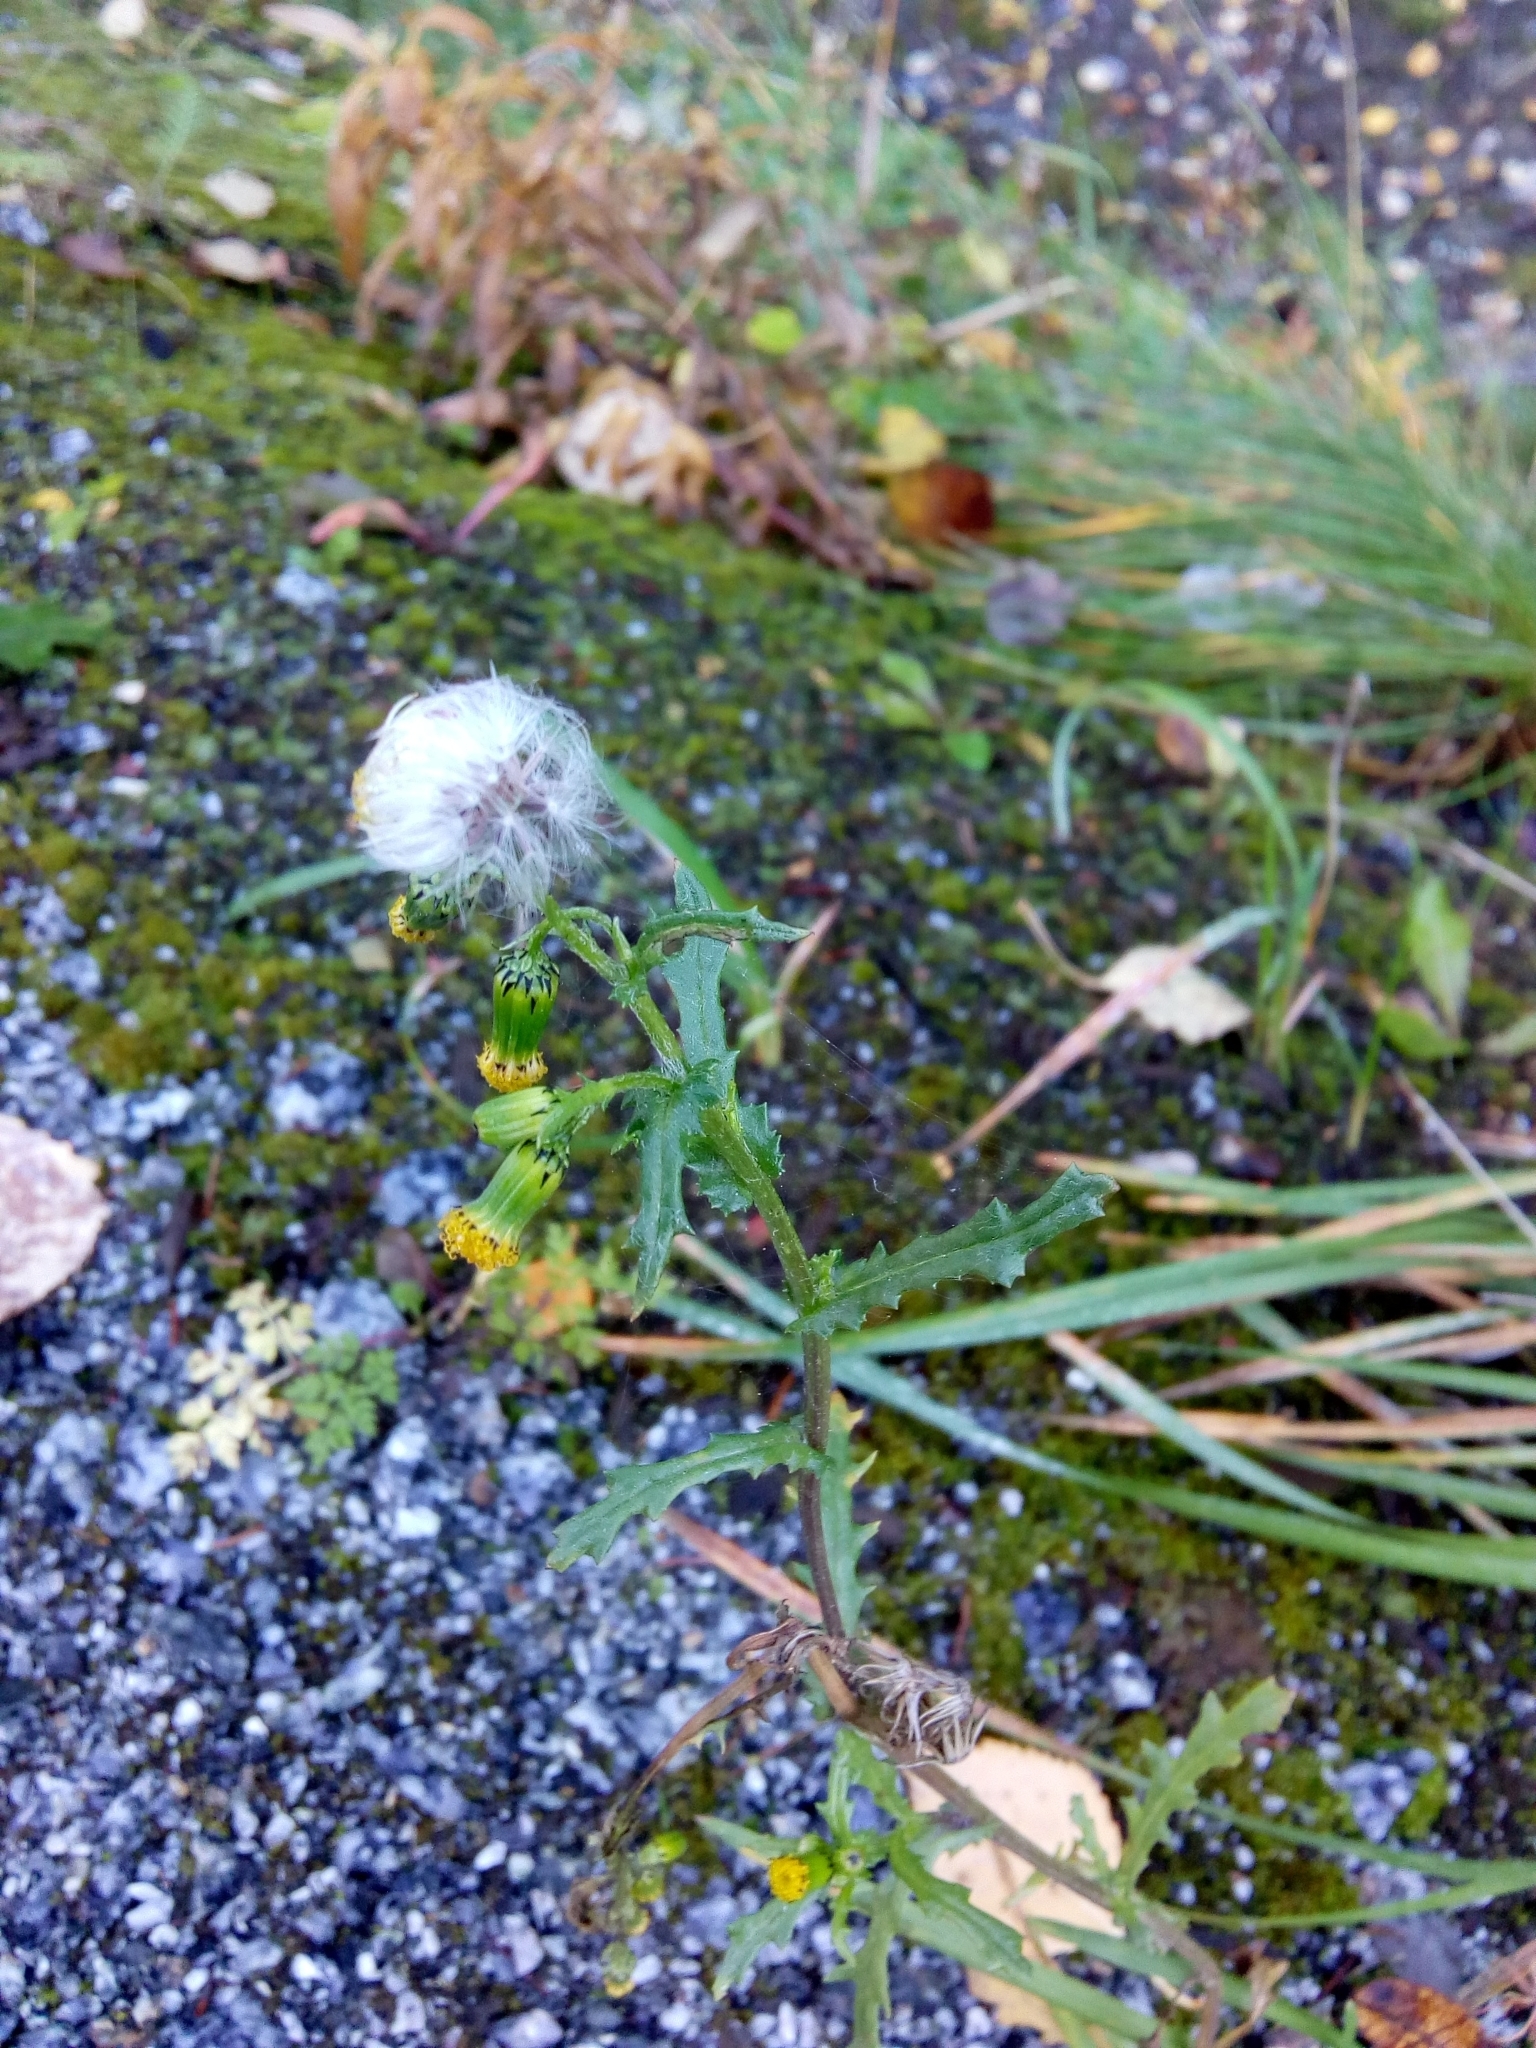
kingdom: Plantae
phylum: Tracheophyta
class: Magnoliopsida
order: Asterales
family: Asteraceae
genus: Senecio
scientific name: Senecio vulgaris
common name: Old-man-in-the-spring
